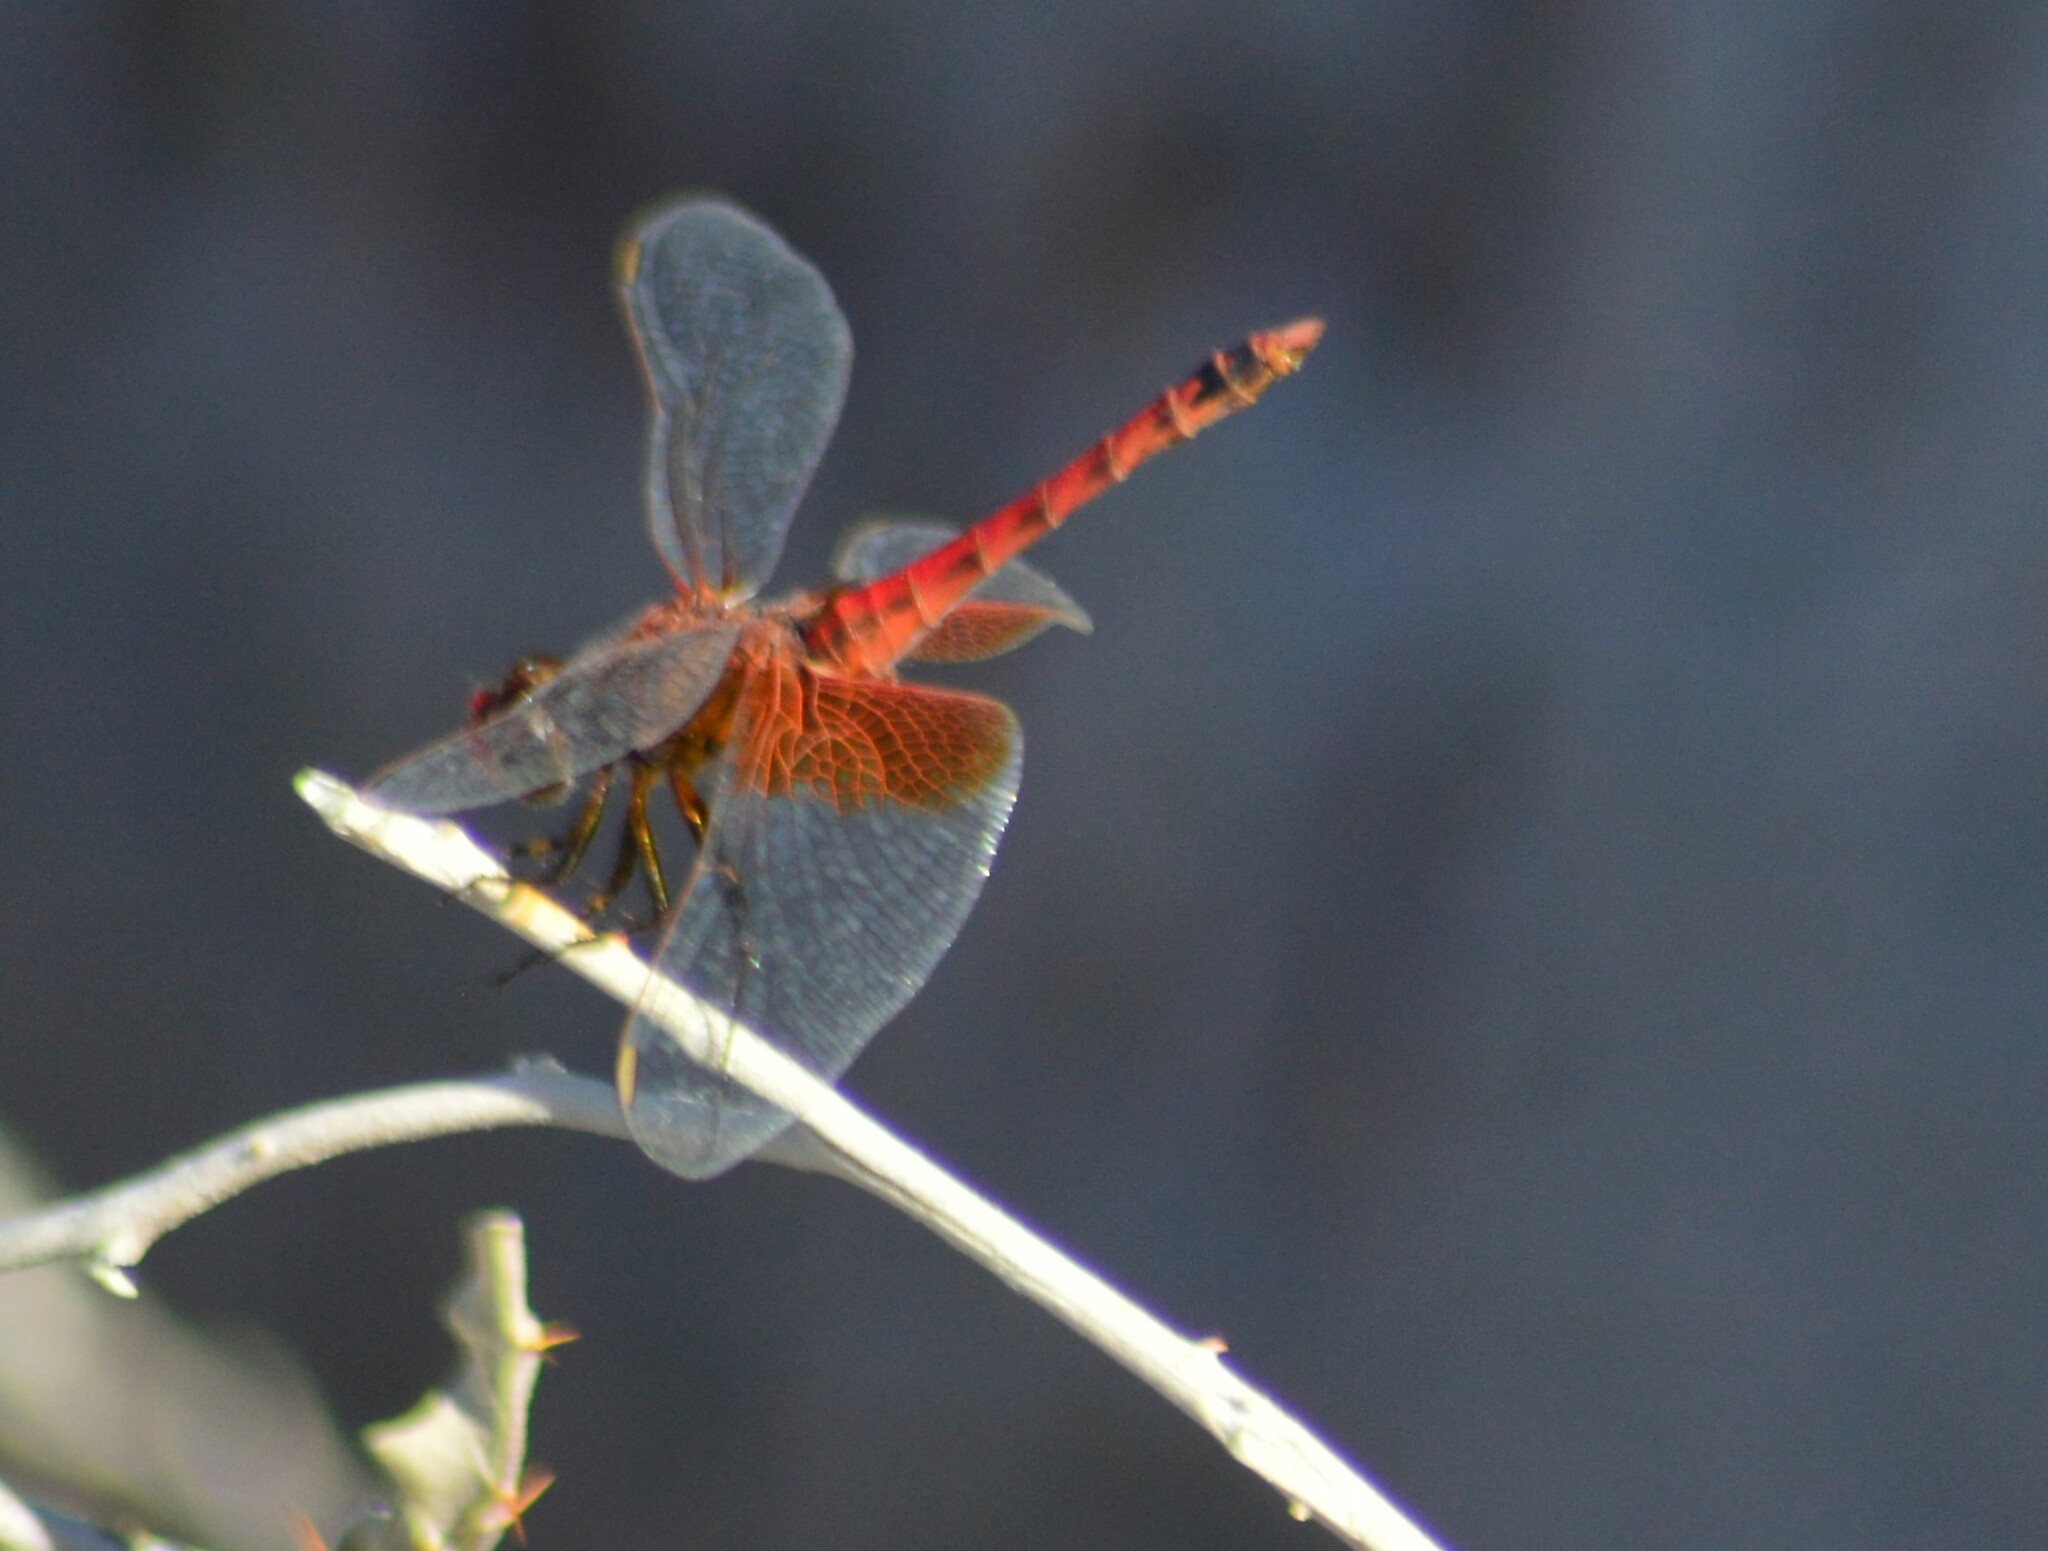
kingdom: Animalia
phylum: Arthropoda
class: Insecta
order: Odonata
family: Libellulidae
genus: Erythrodiplax
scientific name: Erythrodiplax corallina
